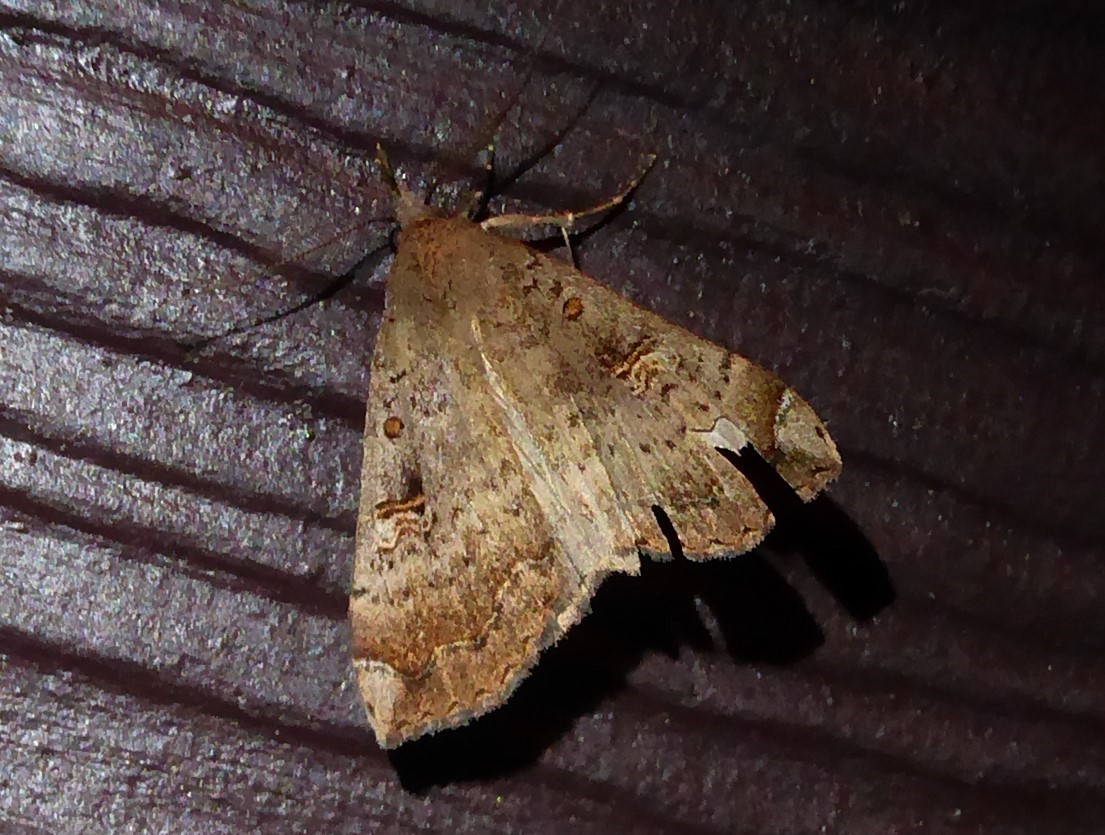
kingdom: Animalia
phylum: Arthropoda
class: Insecta
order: Lepidoptera
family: Erebidae
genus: Rhapsa
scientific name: Rhapsa scotosialis
